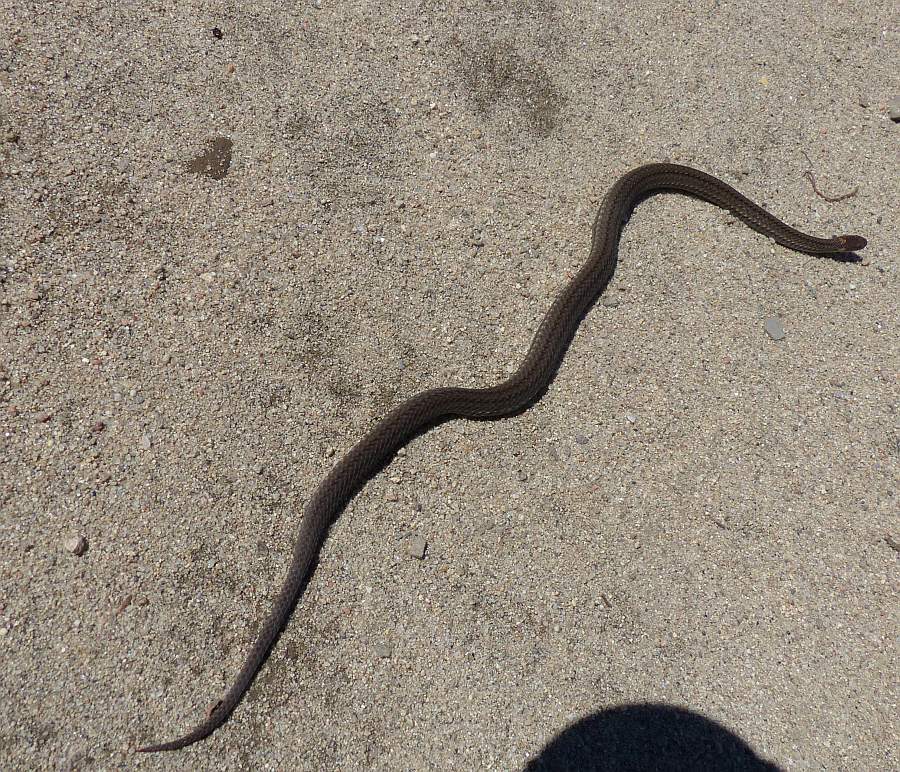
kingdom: Animalia
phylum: Chordata
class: Squamata
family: Colubridae
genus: Storeria
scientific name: Storeria occipitomaculata
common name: Redbelly snake
